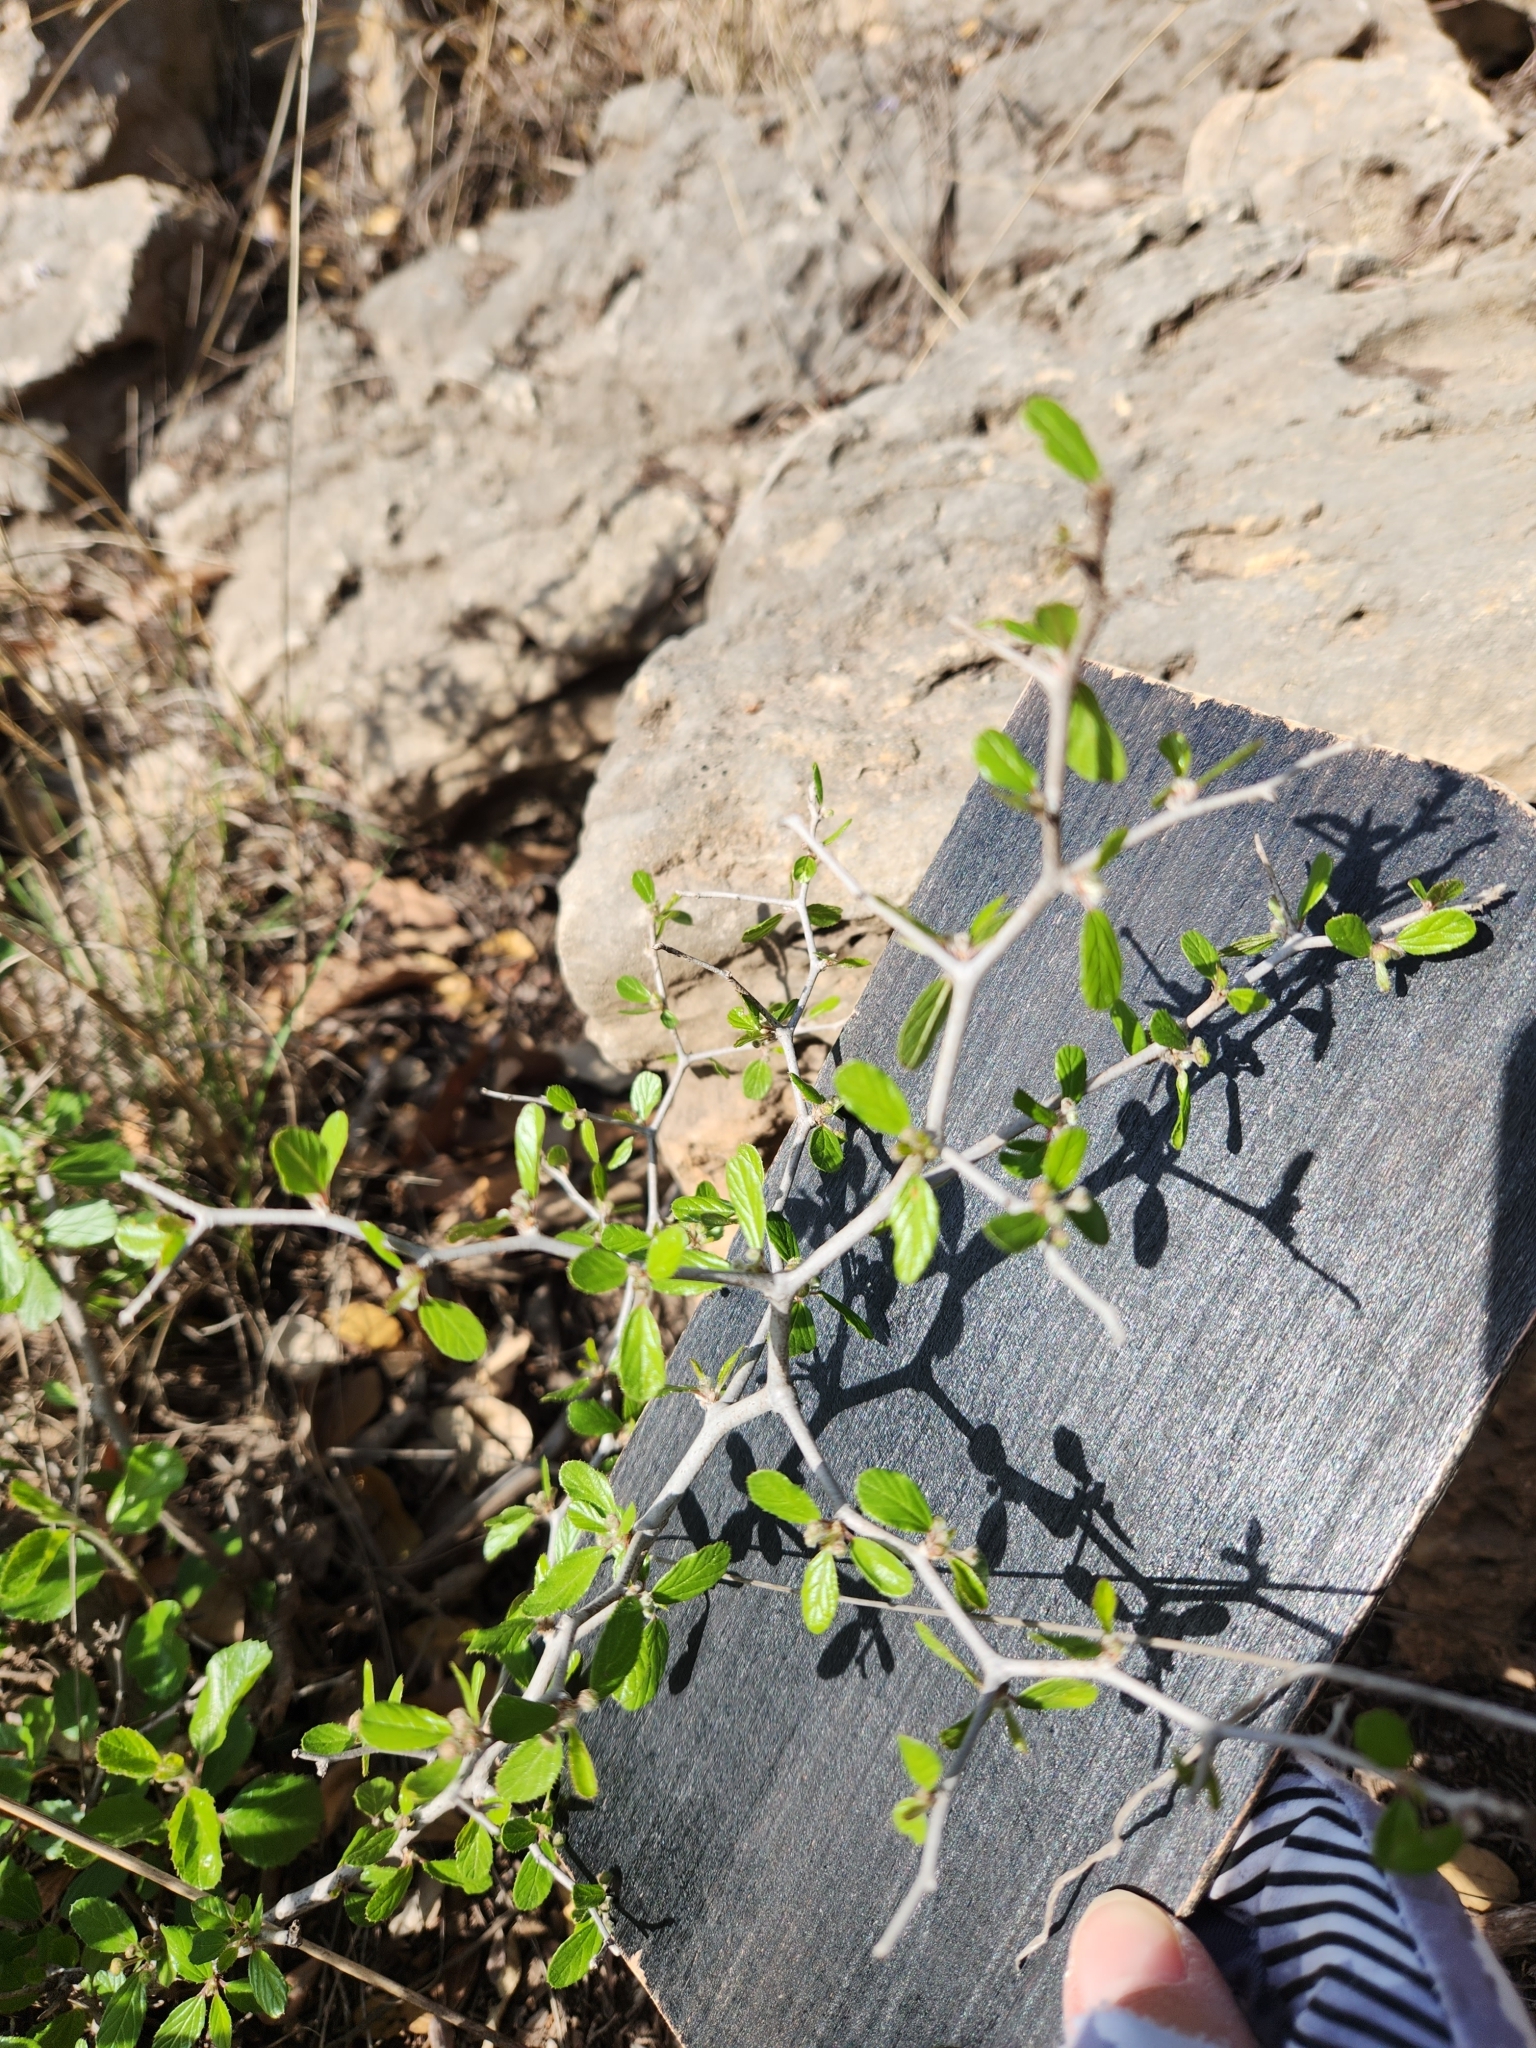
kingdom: Plantae
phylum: Tracheophyta
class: Magnoliopsida
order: Rosales
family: Rhamnaceae
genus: Colubrina
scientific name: Colubrina texensis
